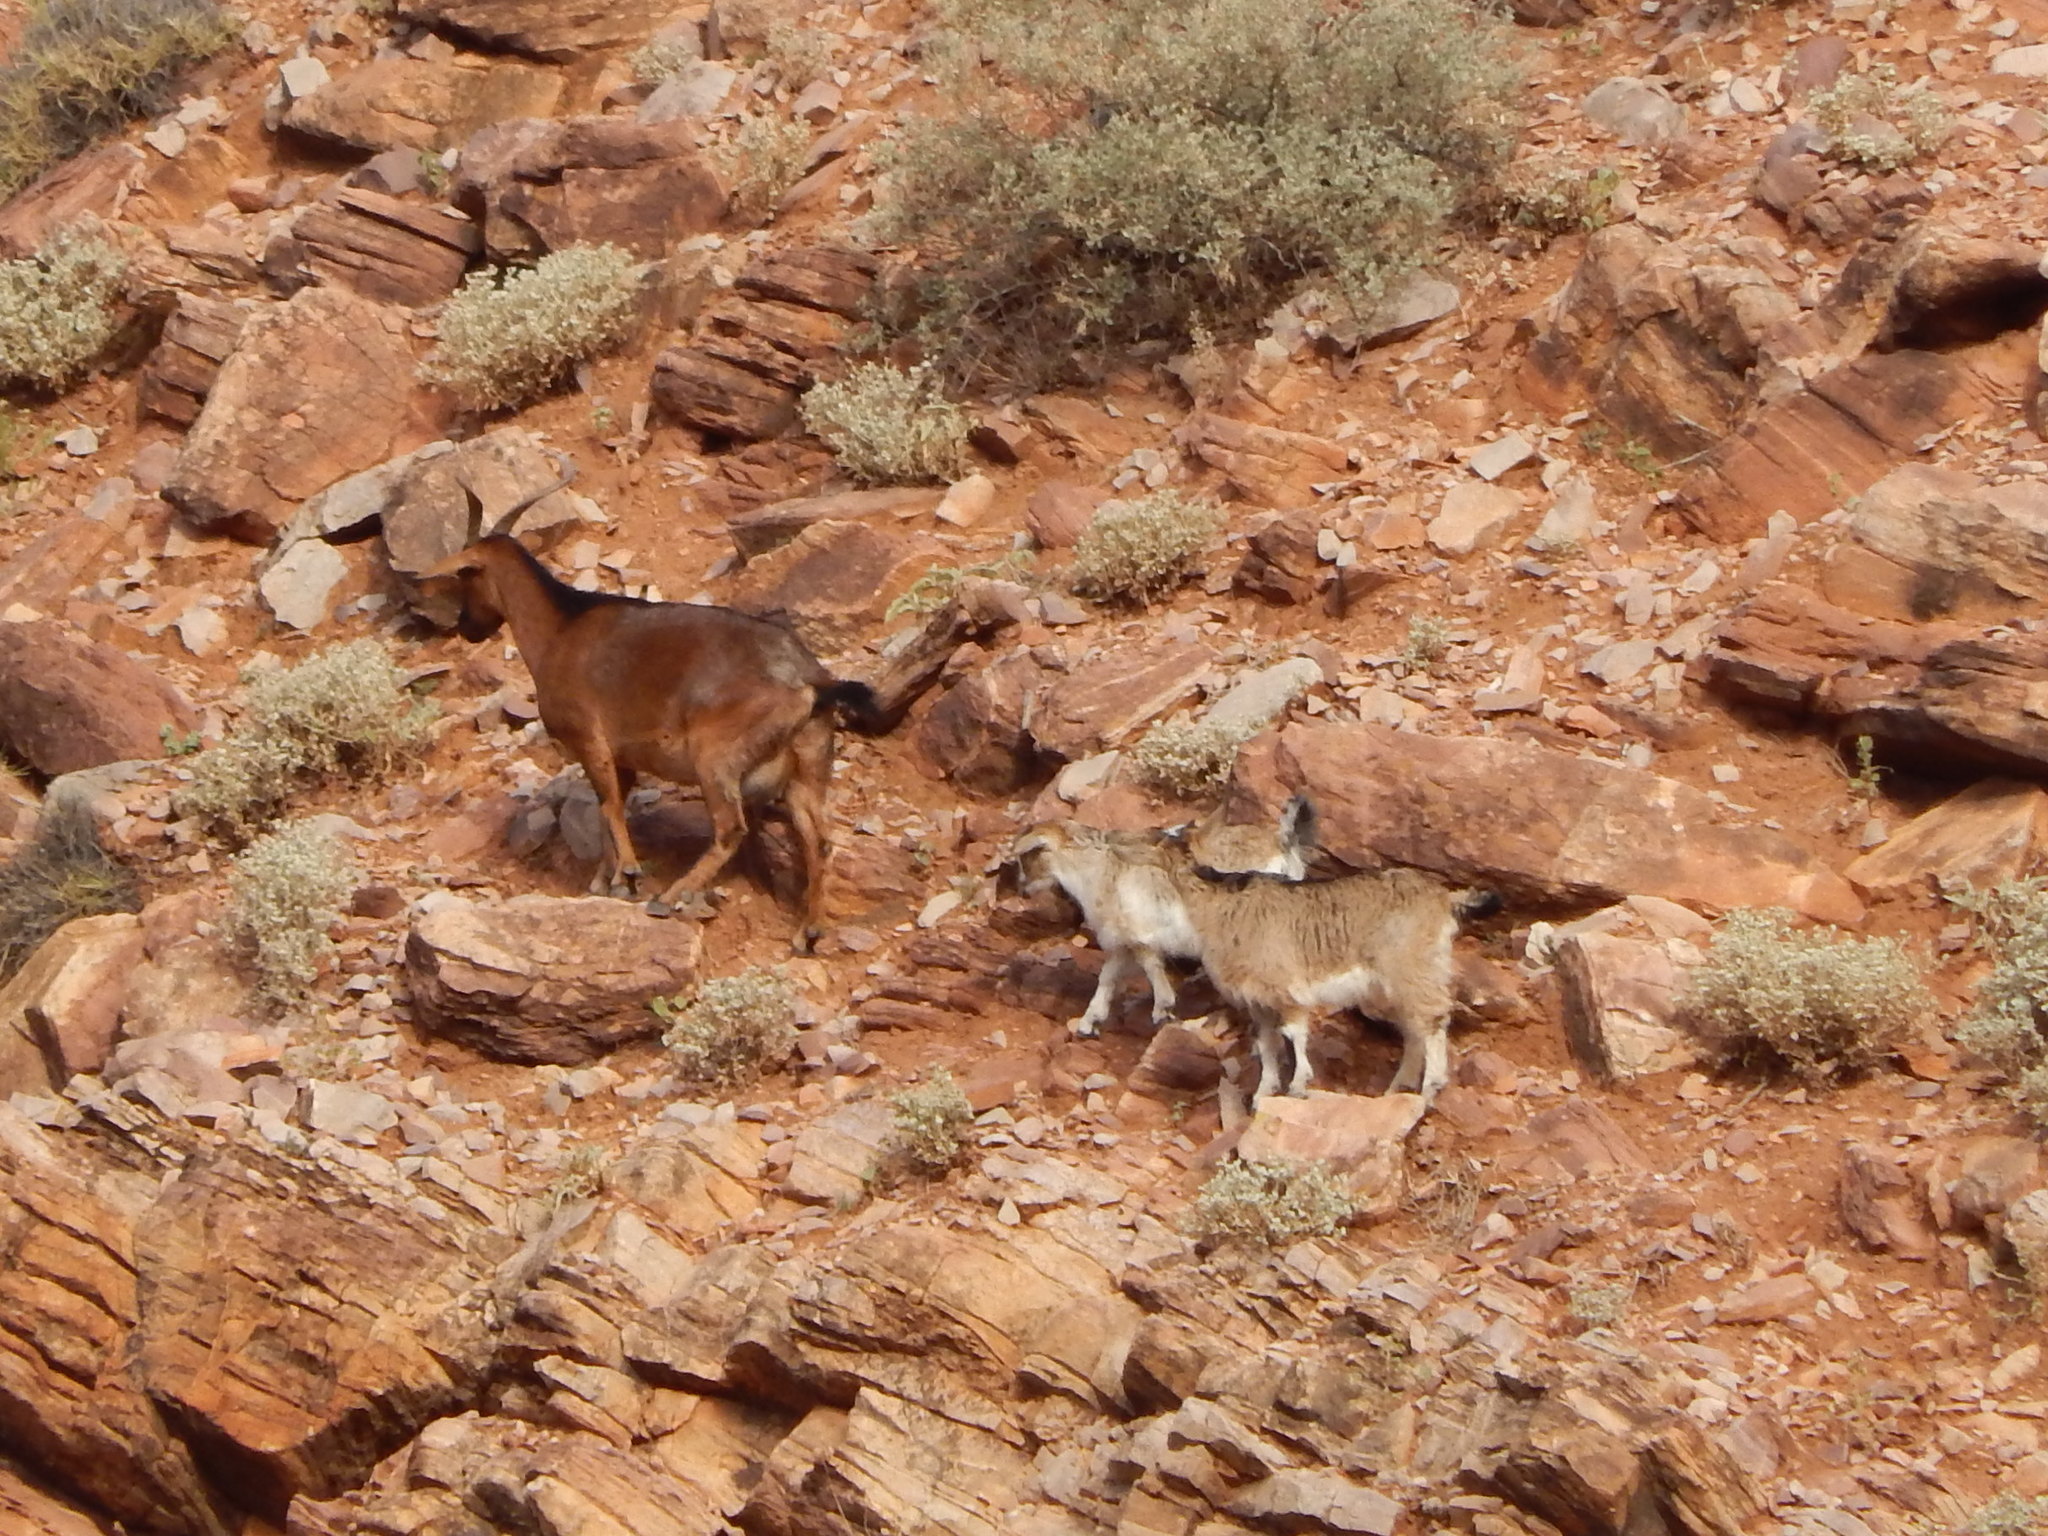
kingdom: Animalia
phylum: Chordata
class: Mammalia
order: Artiodactyla
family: Bovidae
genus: Capra
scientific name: Capra hircus
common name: Domestic goat
